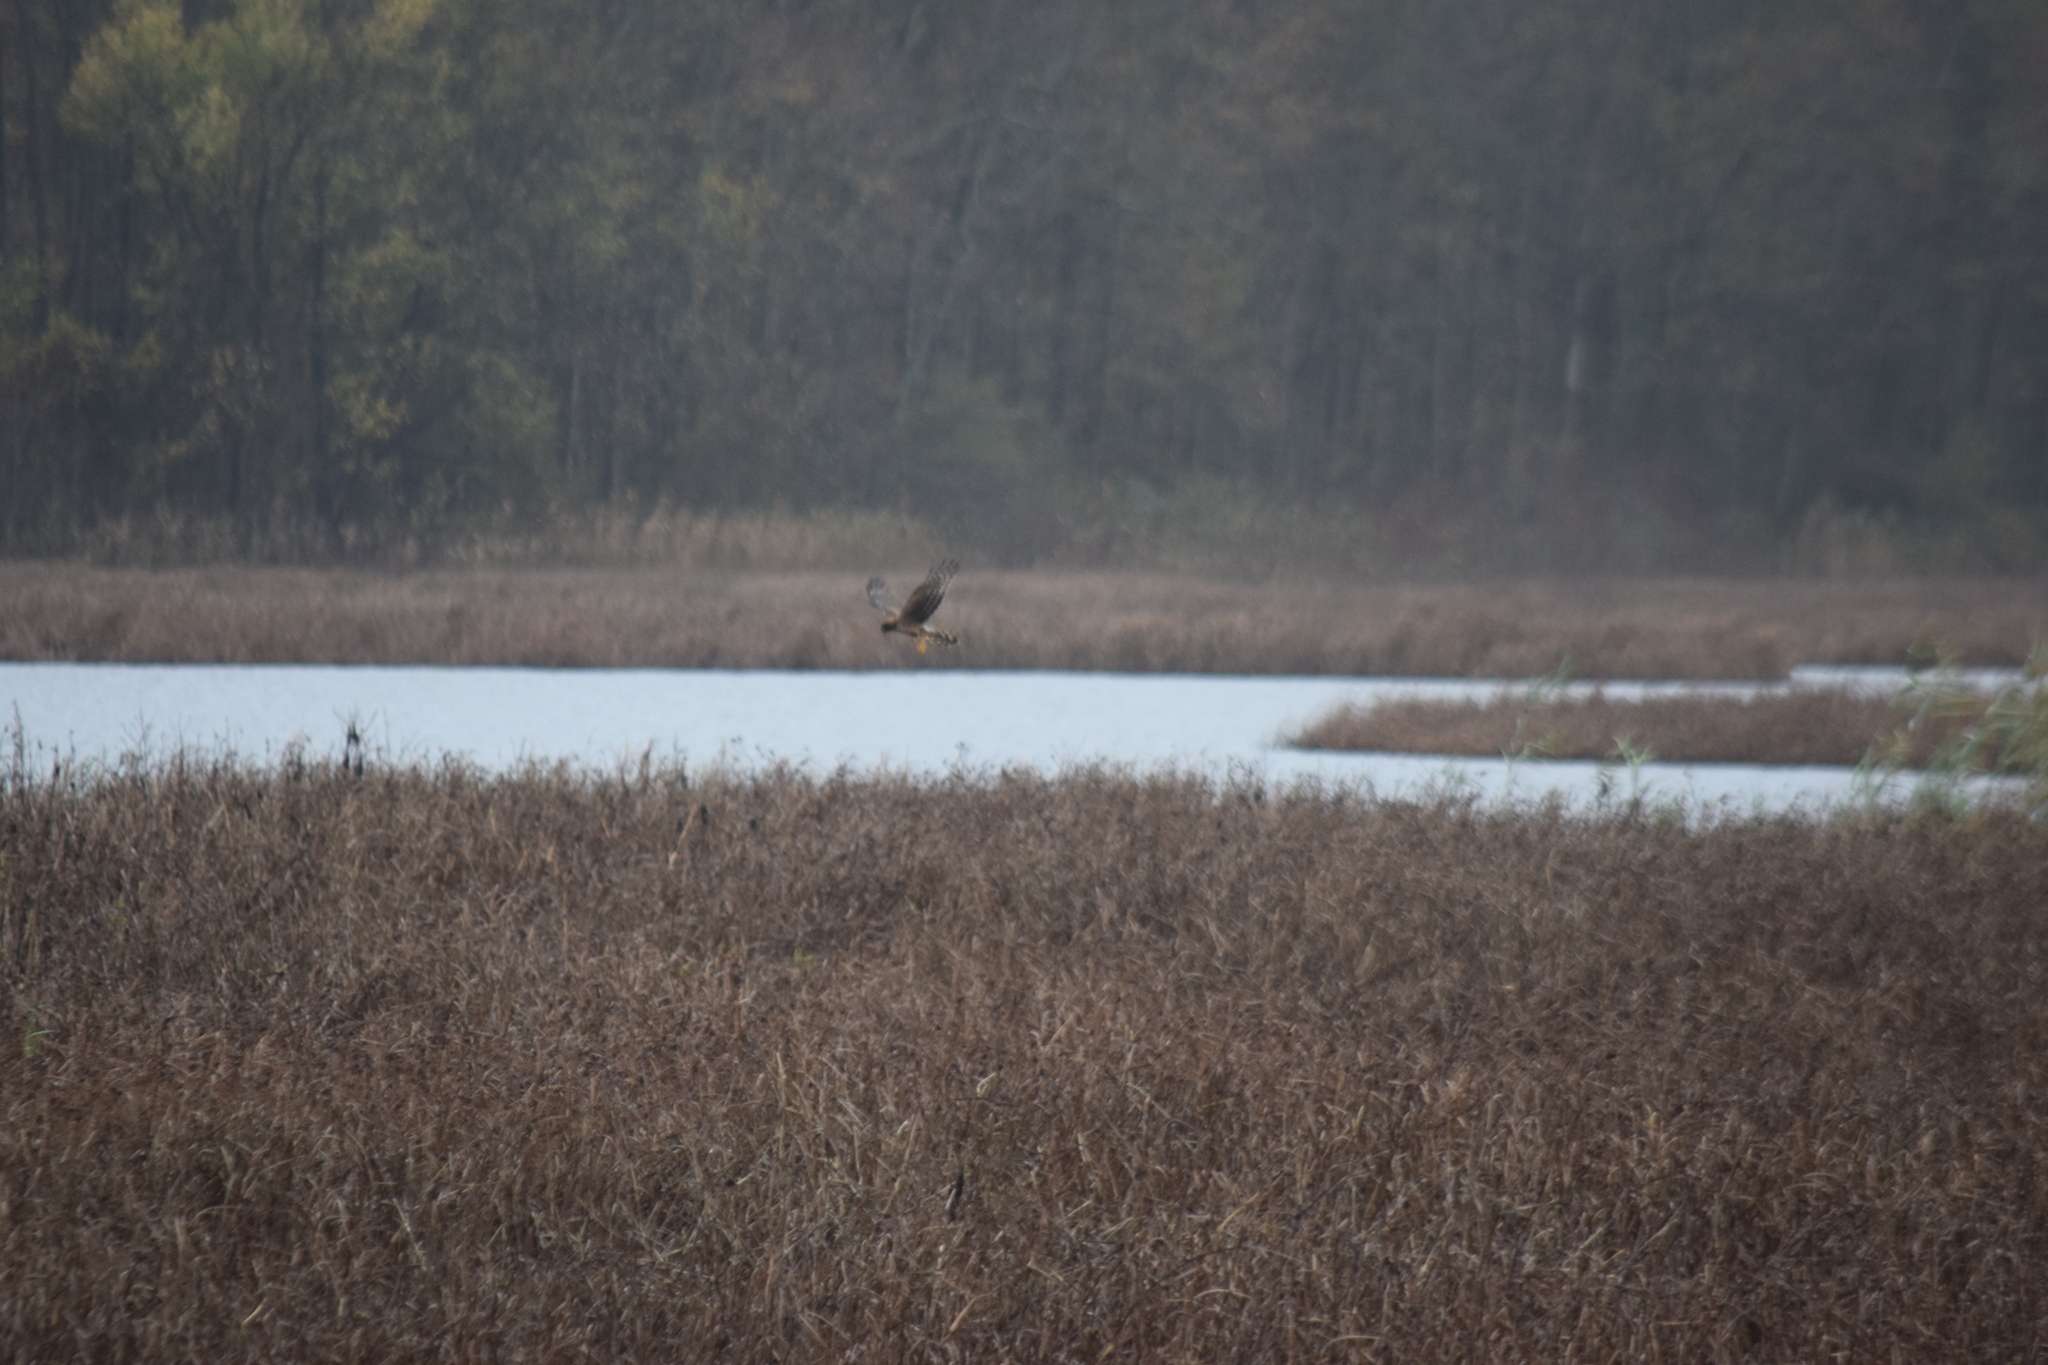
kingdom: Animalia
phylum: Chordata
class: Aves
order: Accipitriformes
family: Accipitridae
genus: Circus
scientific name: Circus cyaneus
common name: Hen harrier
